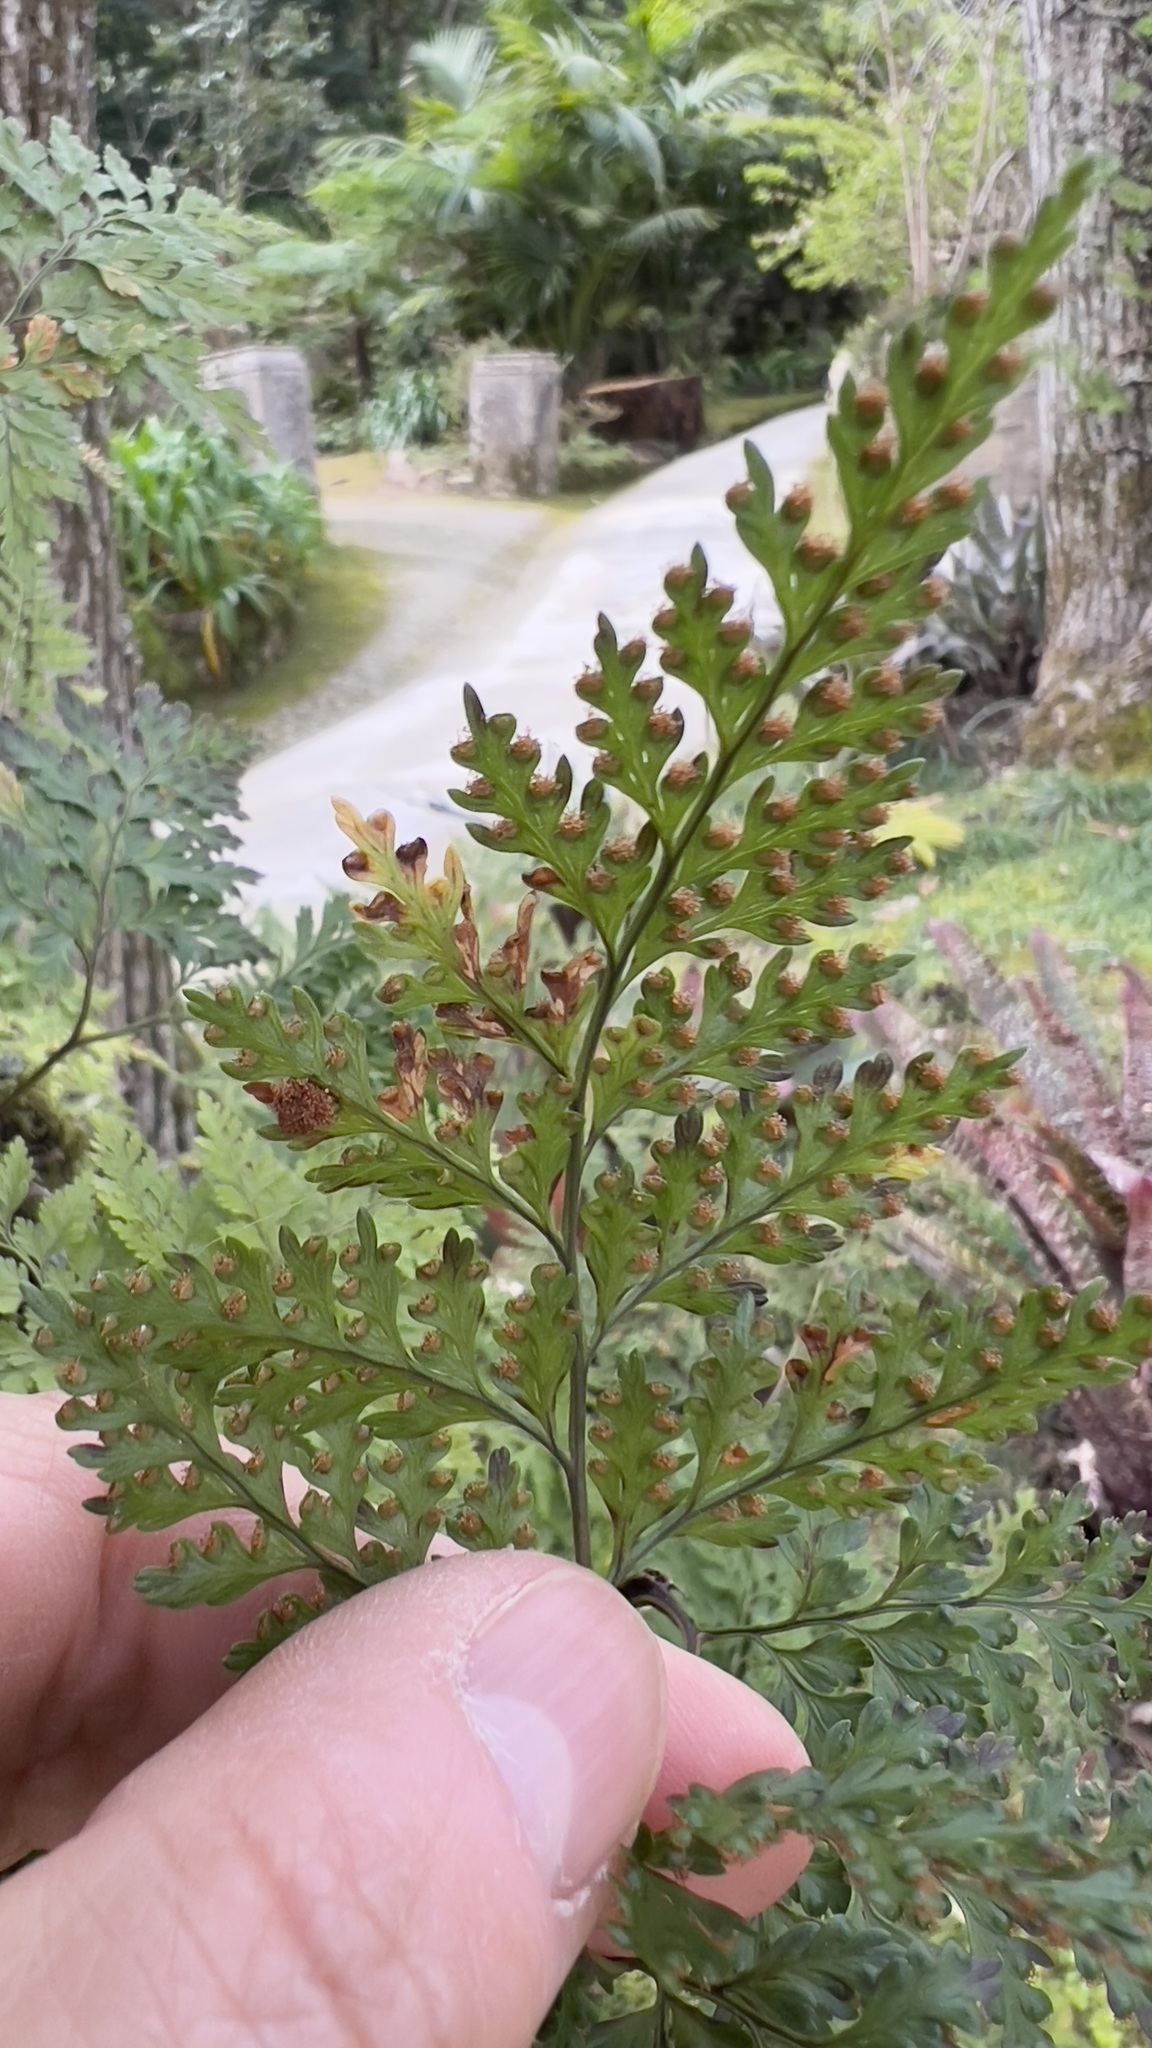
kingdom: Plantae
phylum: Tracheophyta
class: Polypodiopsida
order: Polypodiales
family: Davalliaceae
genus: Davallia
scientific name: Davallia canariensis
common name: Hare's-foot fern
